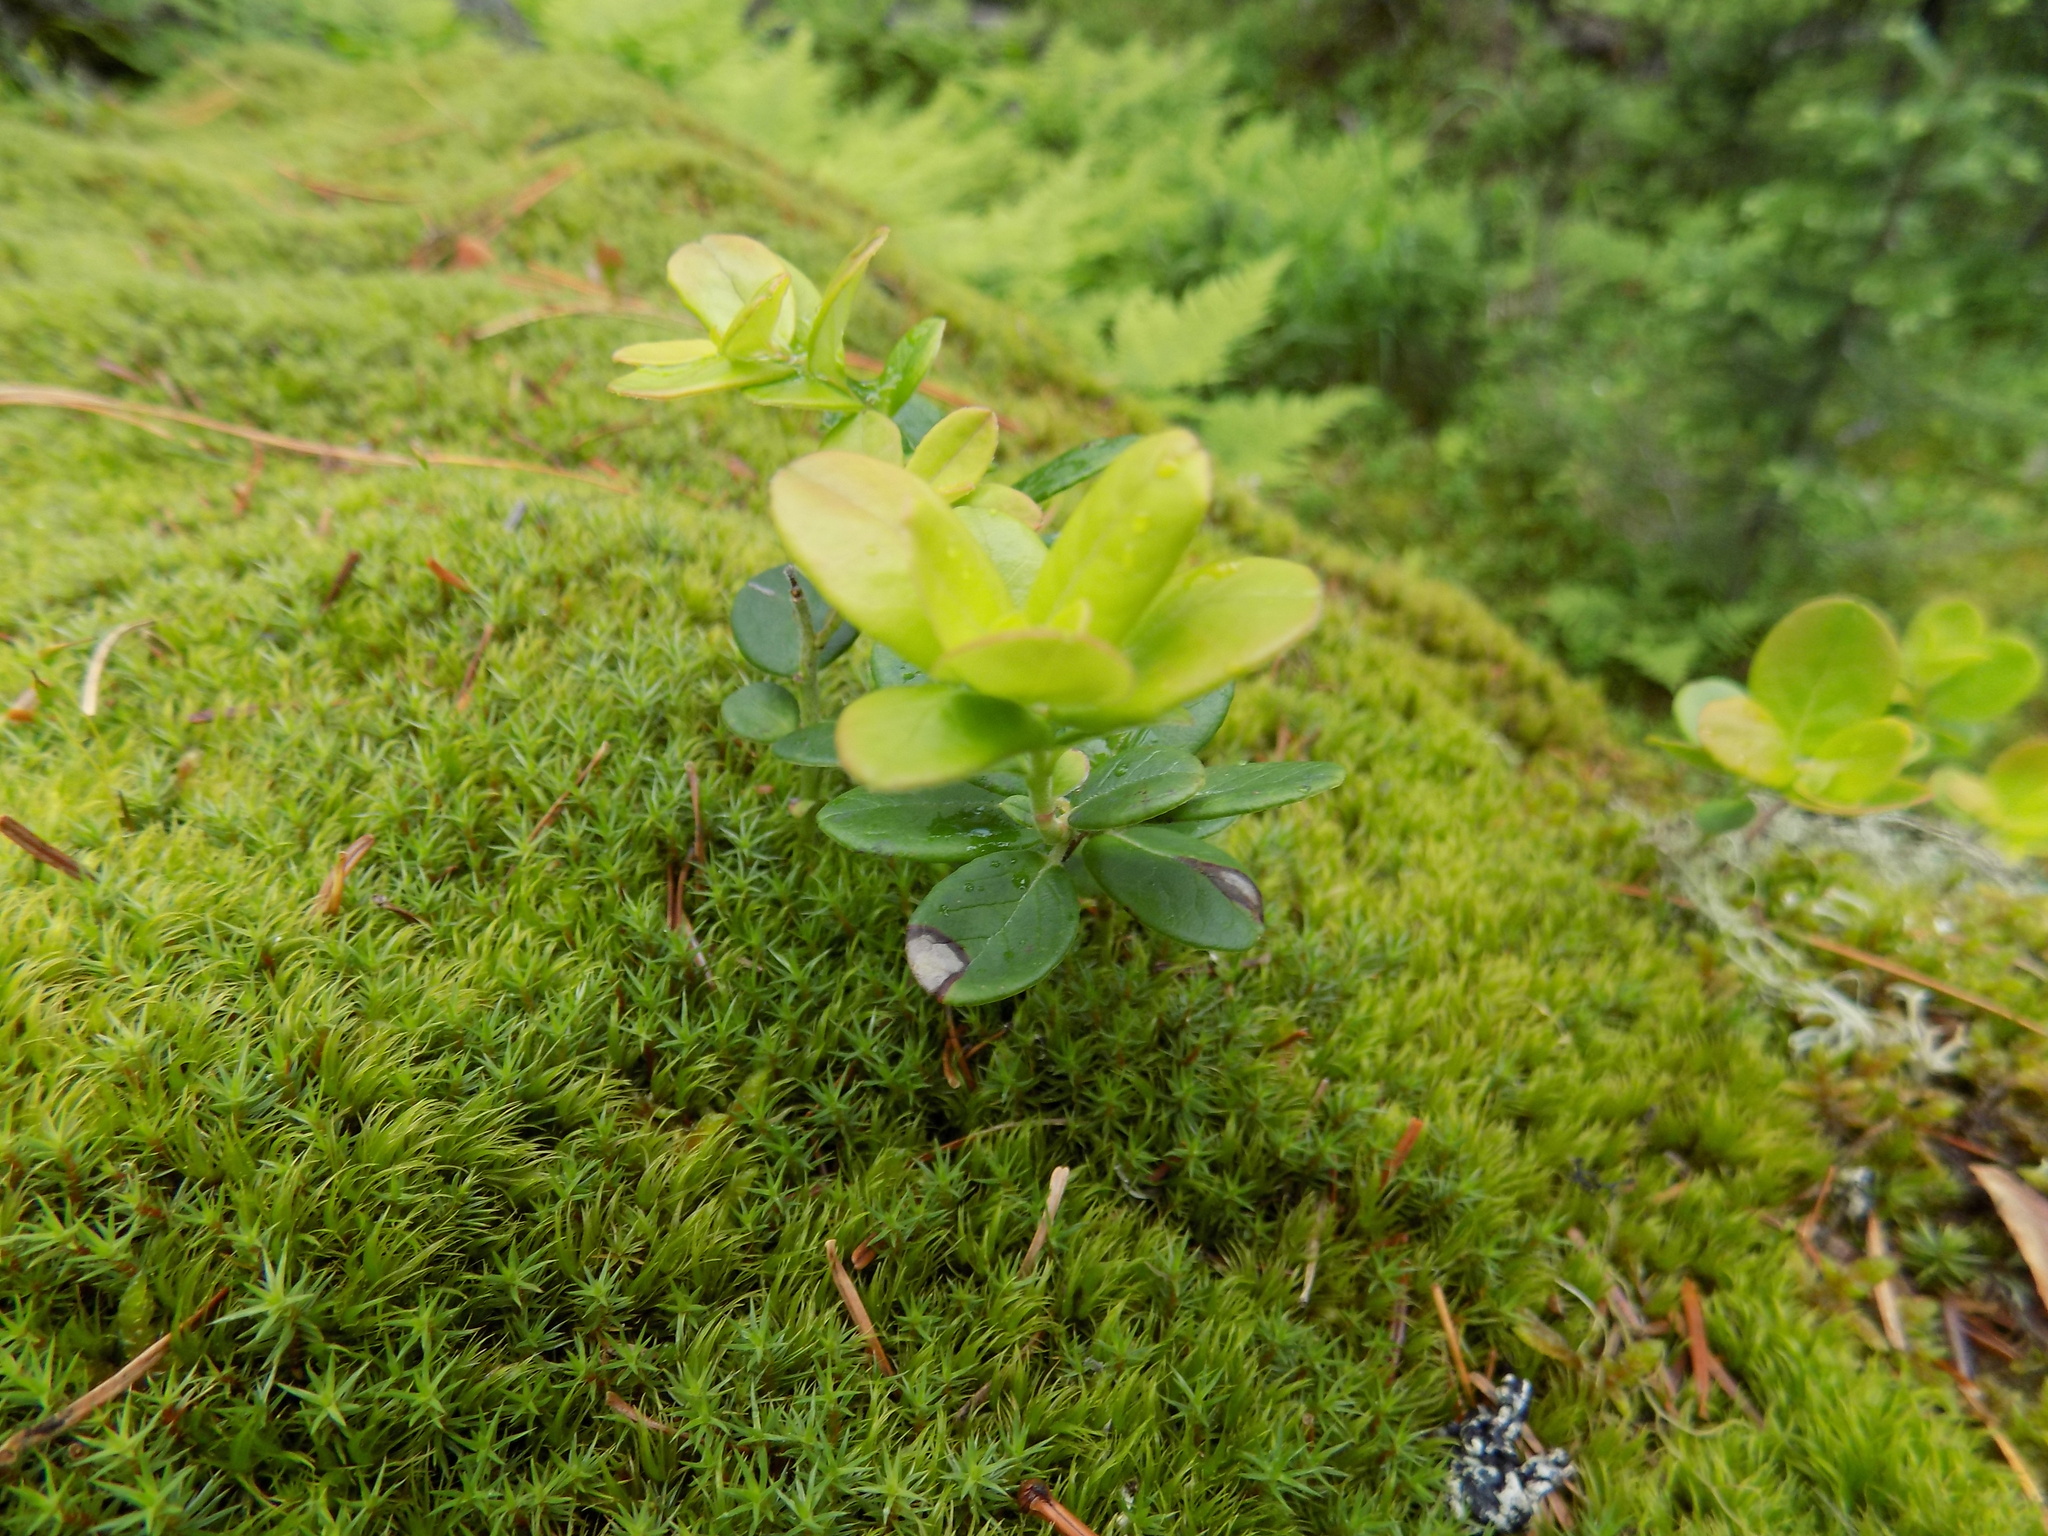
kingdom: Plantae
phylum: Tracheophyta
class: Magnoliopsida
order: Ericales
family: Ericaceae
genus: Vaccinium
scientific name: Vaccinium vitis-idaea
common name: Cowberry
